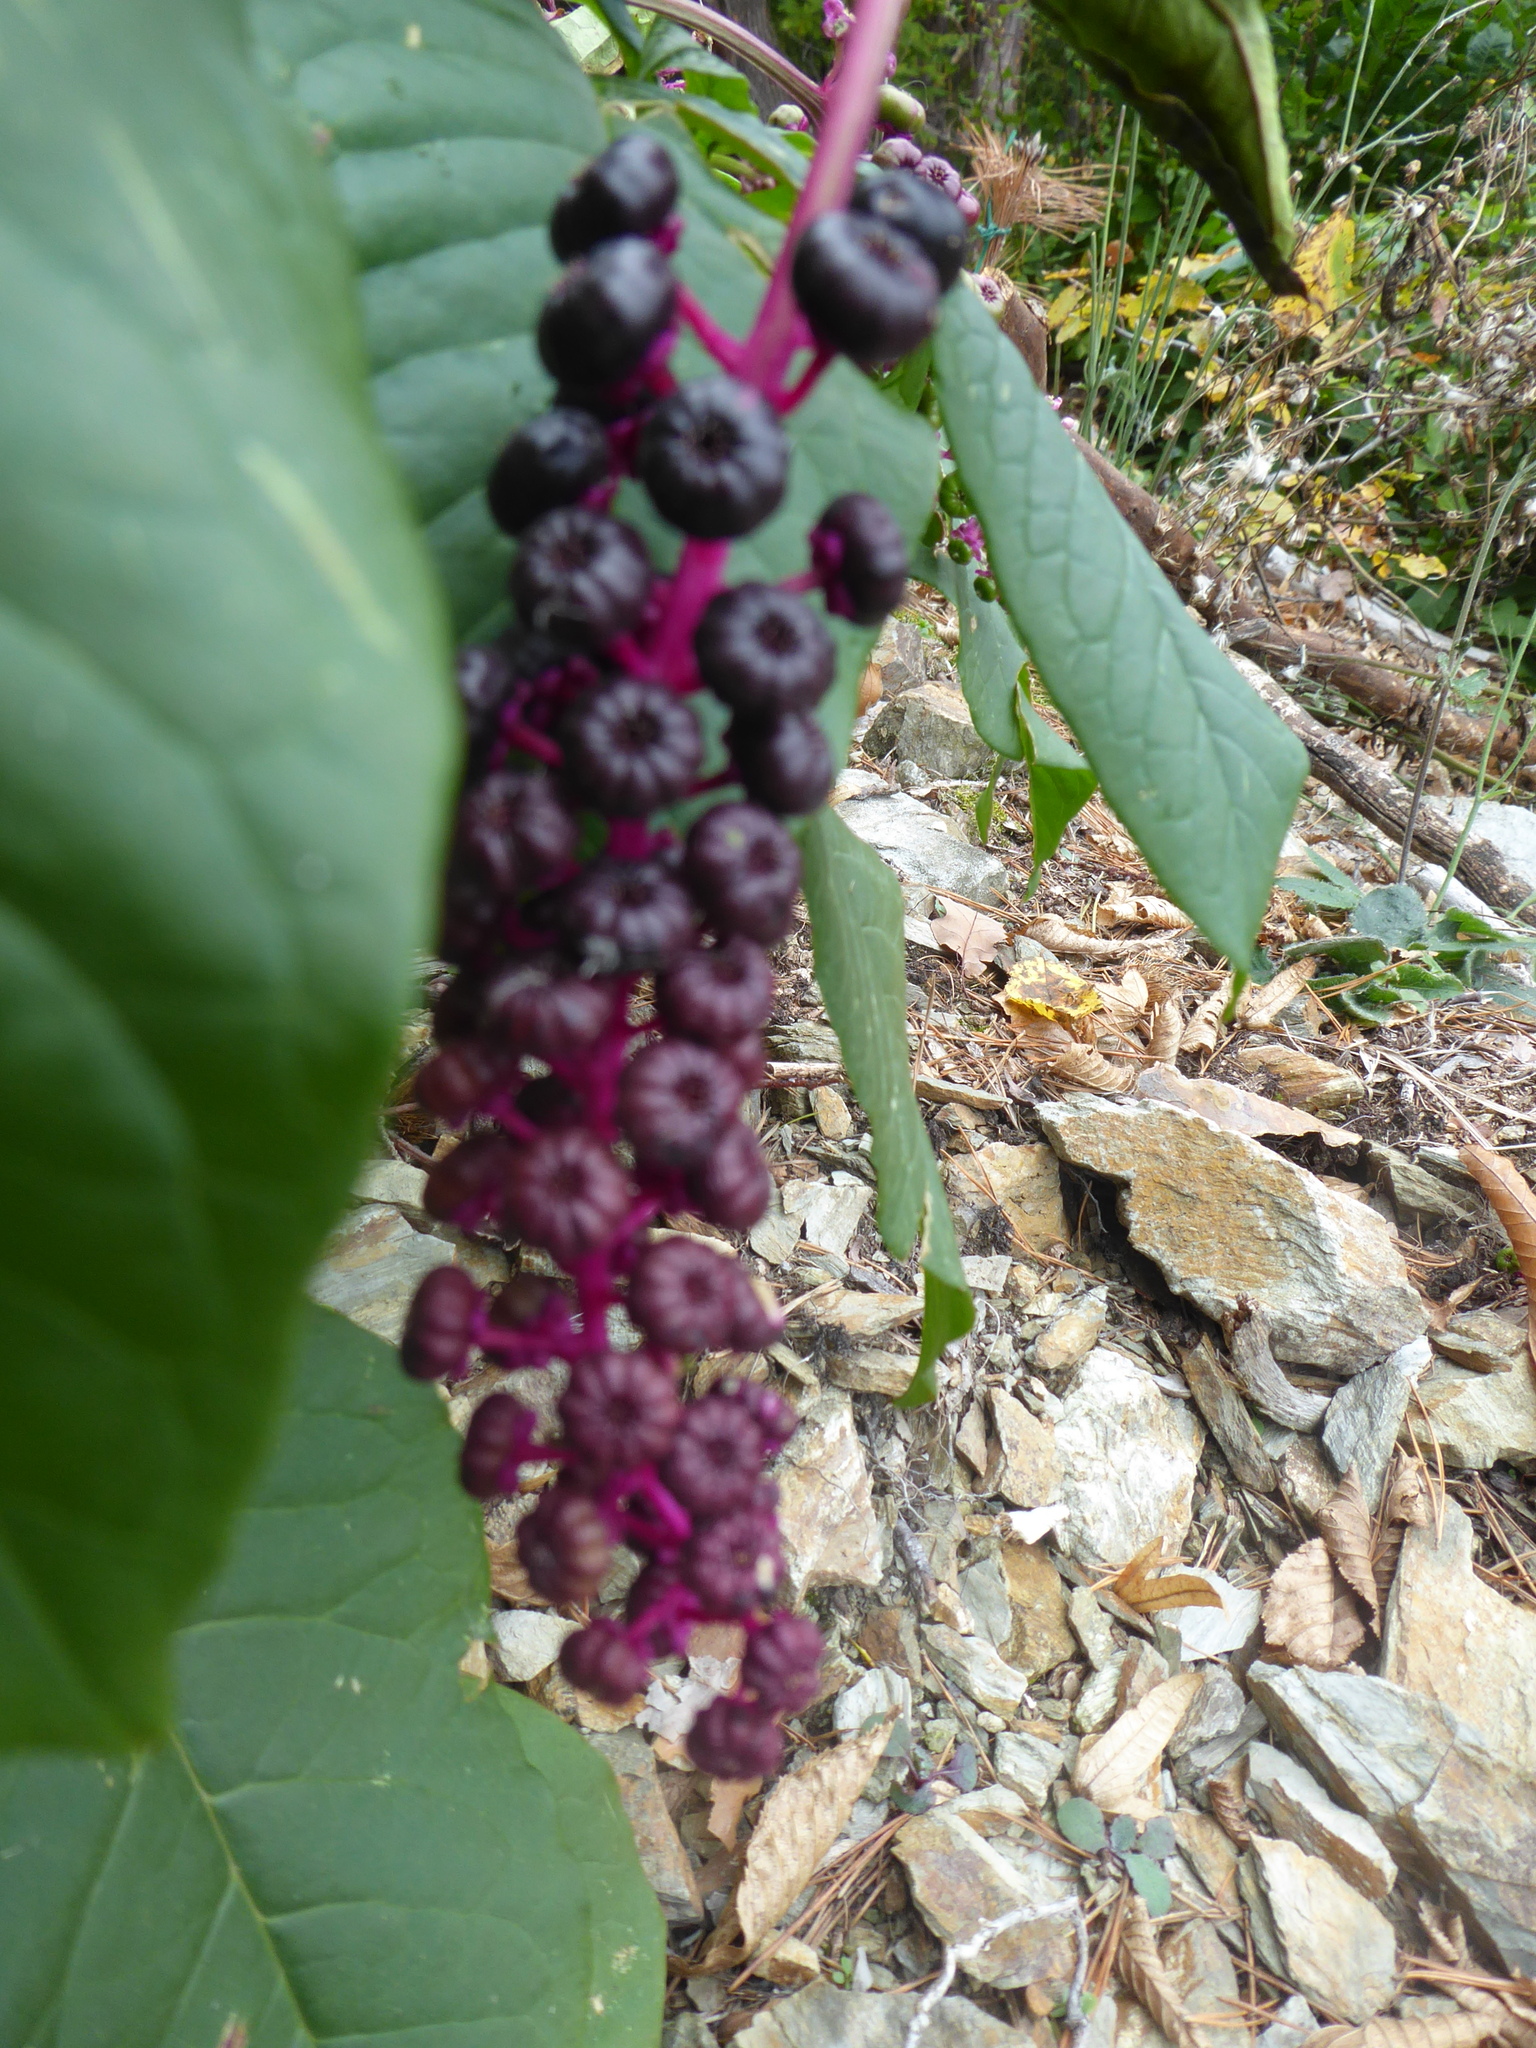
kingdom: Plantae
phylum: Tracheophyta
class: Magnoliopsida
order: Caryophyllales
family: Phytolaccaceae
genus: Phytolacca
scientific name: Phytolacca americana
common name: American pokeweed
